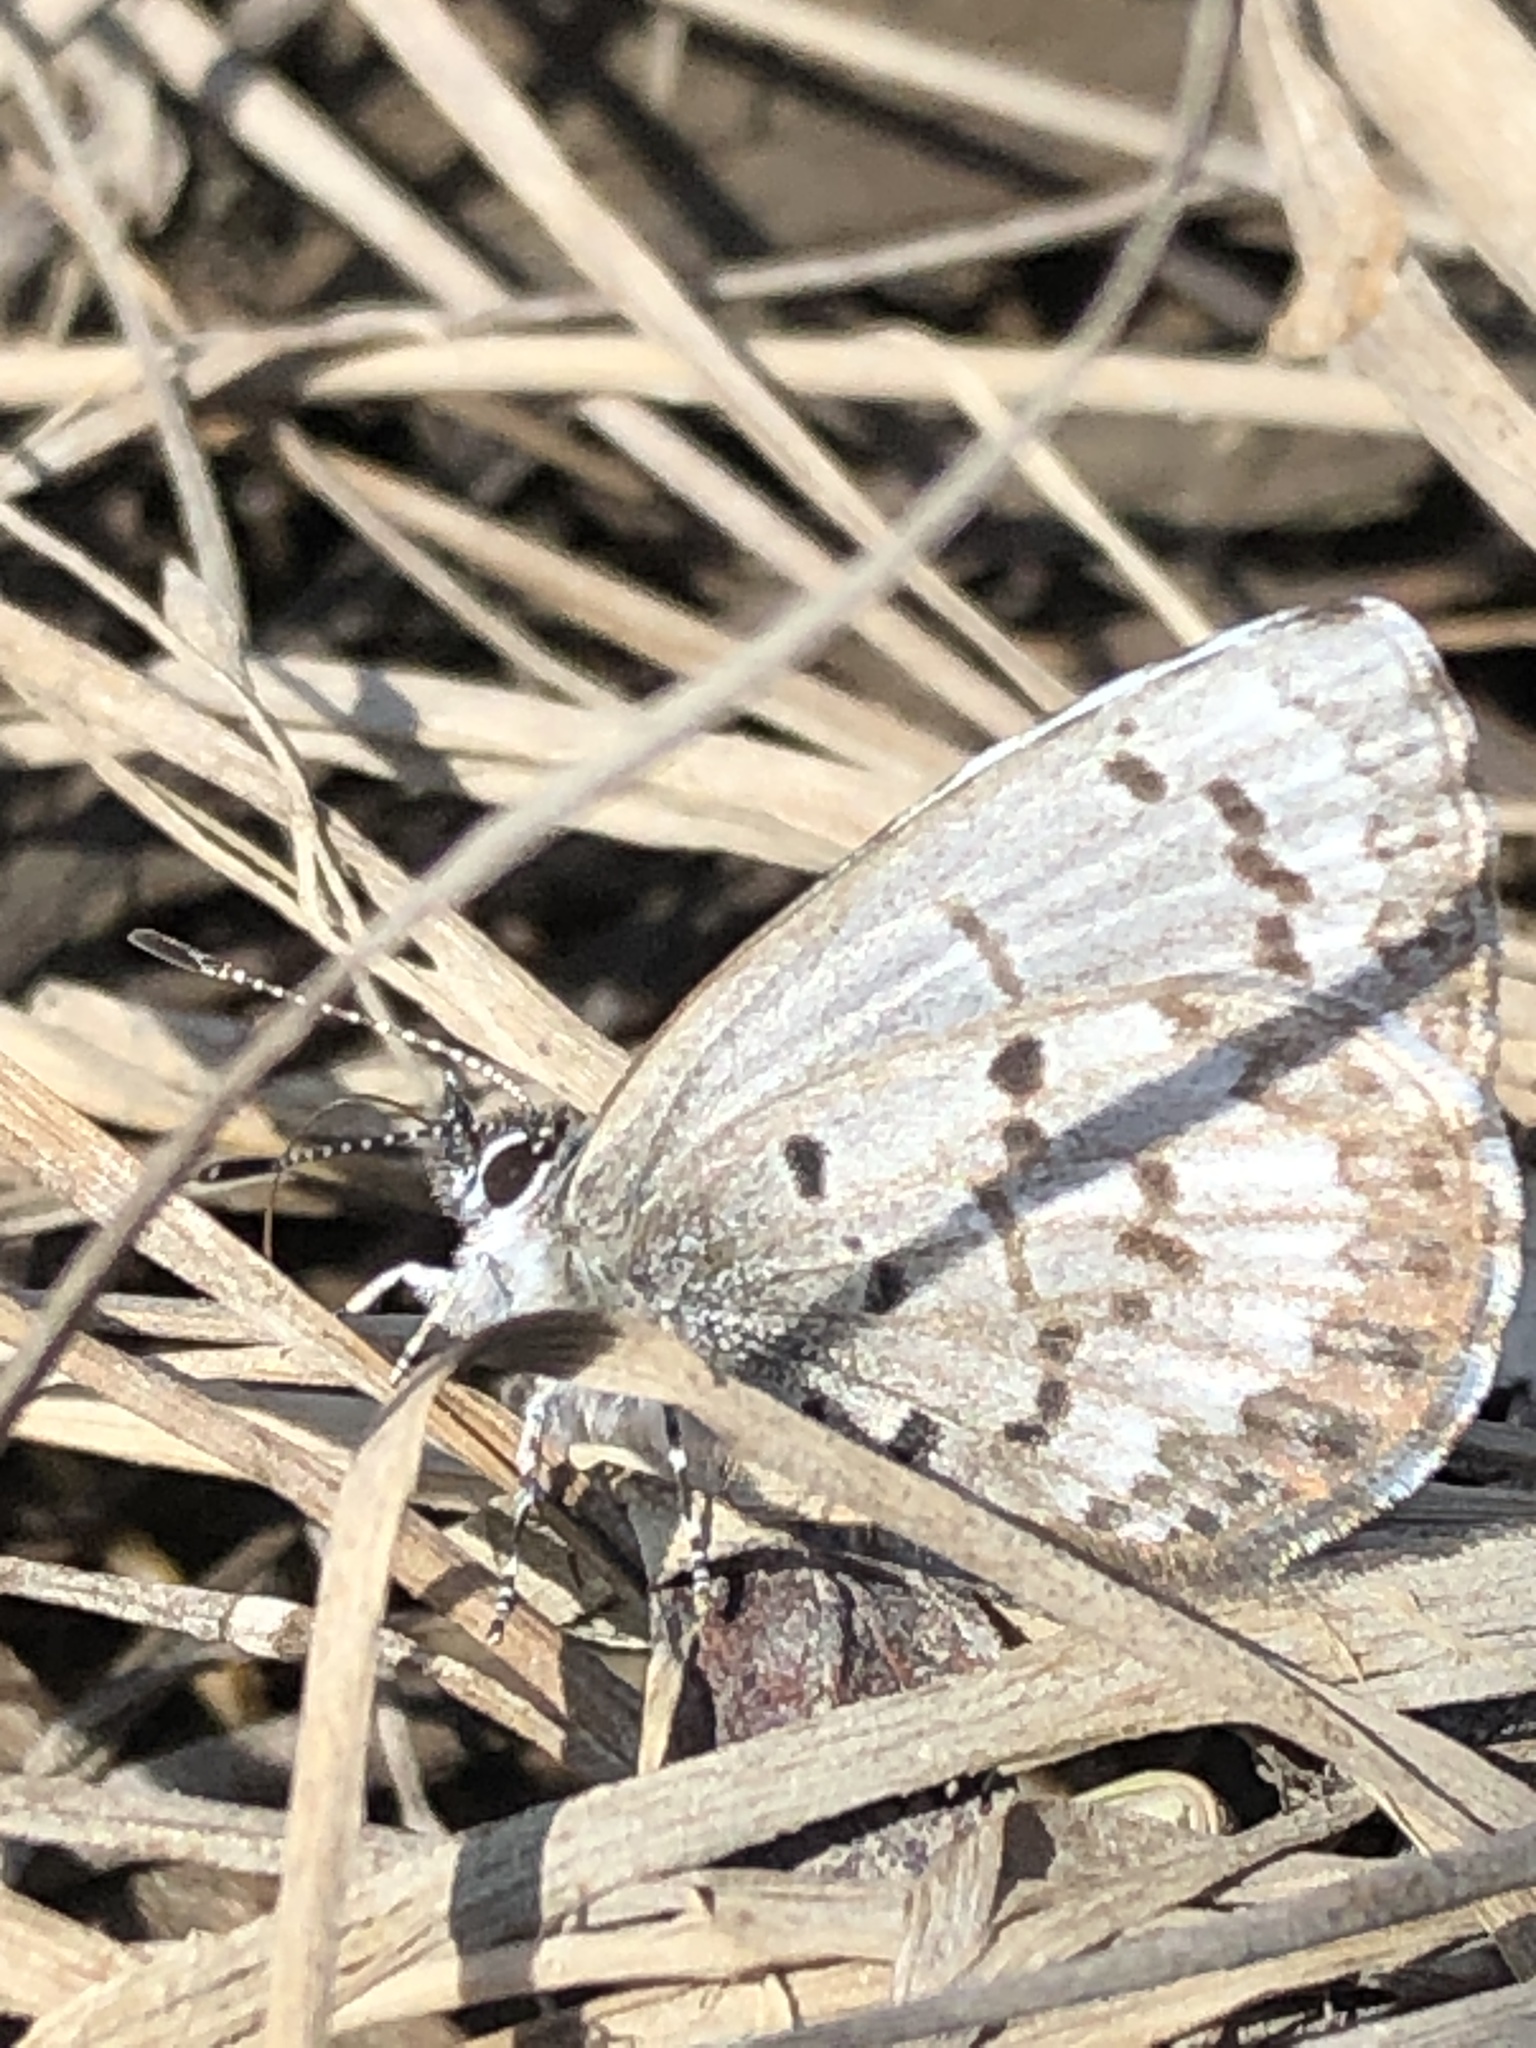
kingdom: Animalia
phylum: Arthropoda
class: Insecta
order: Lepidoptera
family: Lycaenidae
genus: Celastrina
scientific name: Celastrina lucia
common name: Lucia azure
